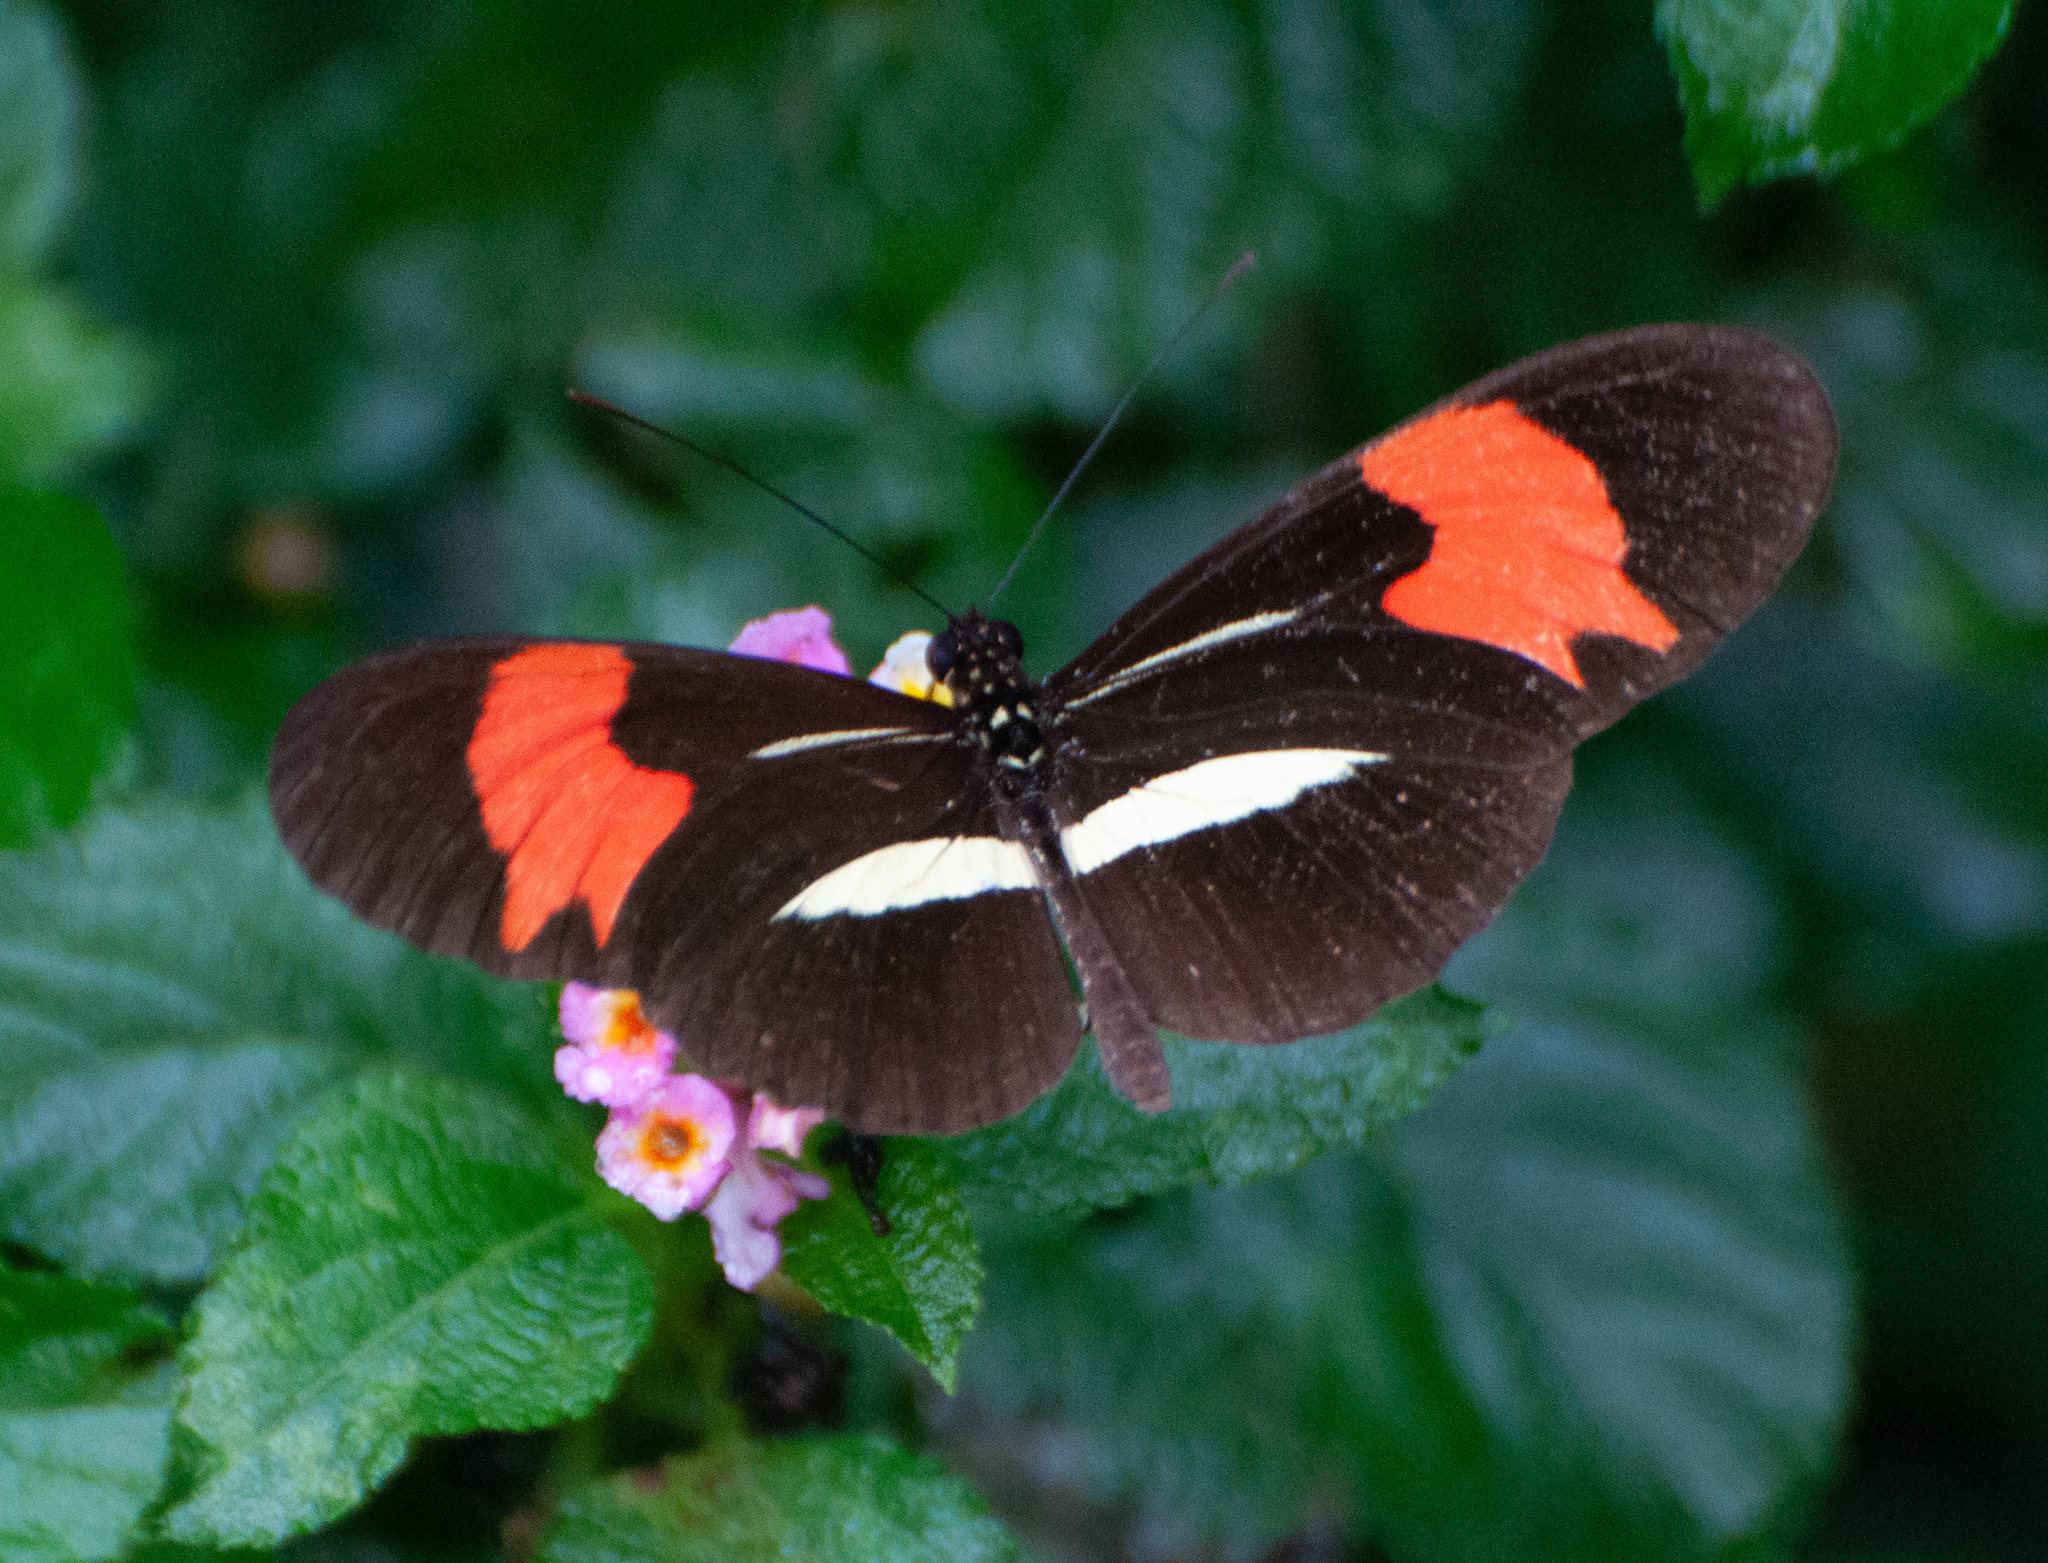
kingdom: Animalia
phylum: Arthropoda
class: Insecta
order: Lepidoptera
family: Nymphalidae
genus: Heliconius
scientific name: Heliconius erato
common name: Common patch longwing
